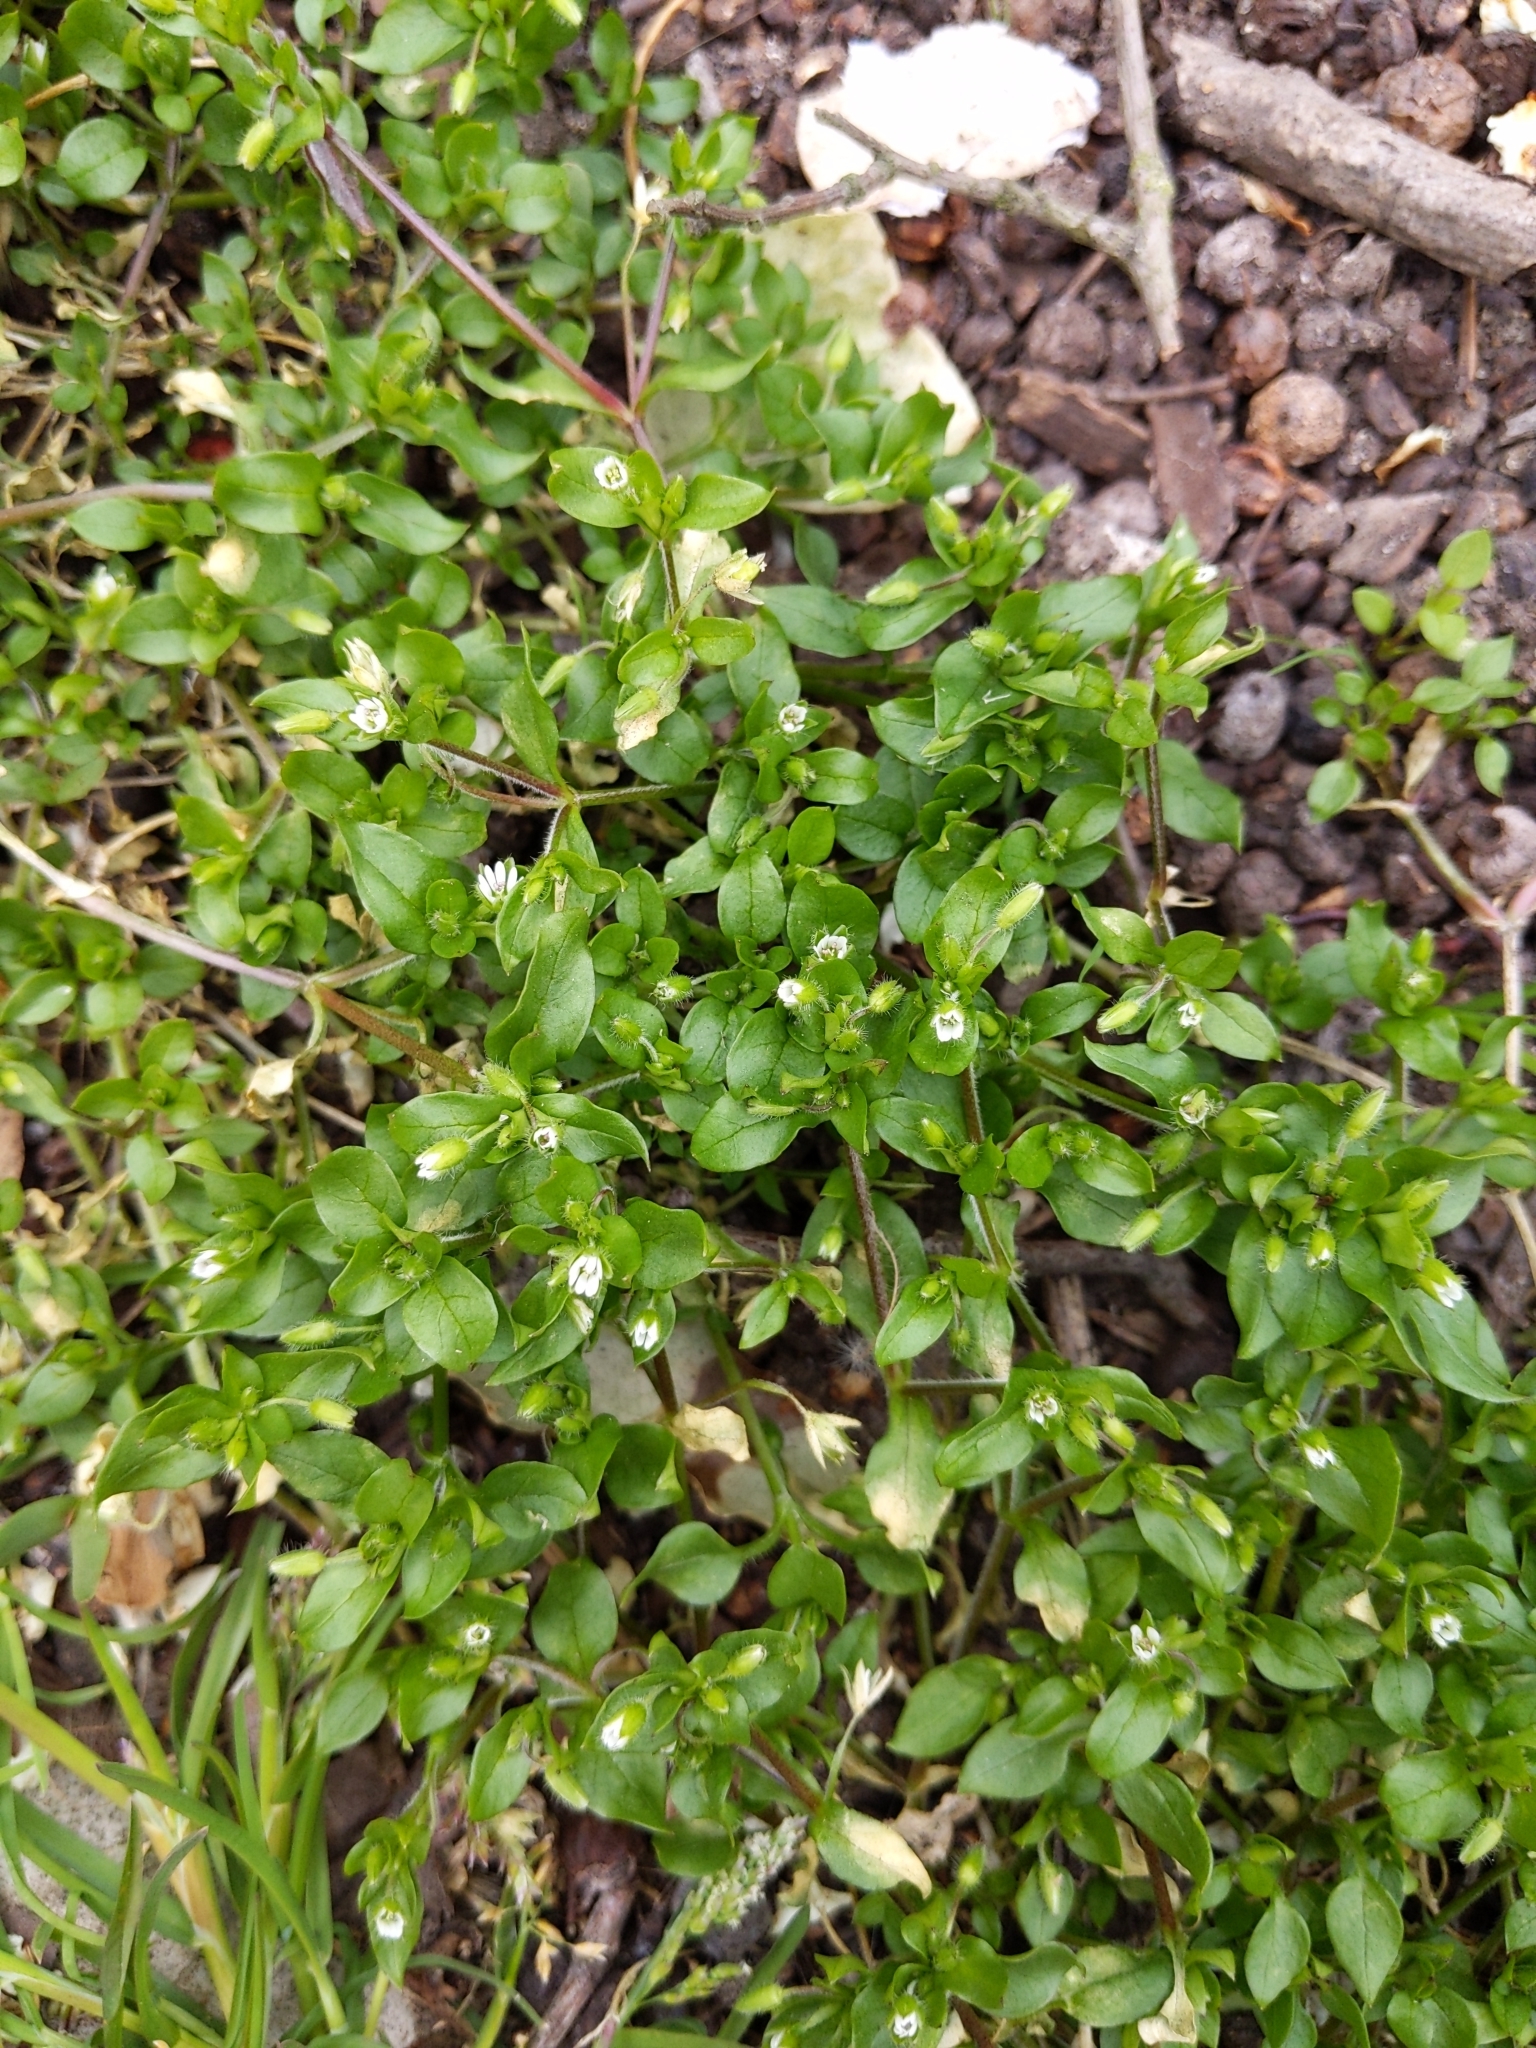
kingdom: Plantae
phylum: Tracheophyta
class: Magnoliopsida
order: Caryophyllales
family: Caryophyllaceae
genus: Stellaria
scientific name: Stellaria media
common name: Common chickweed
